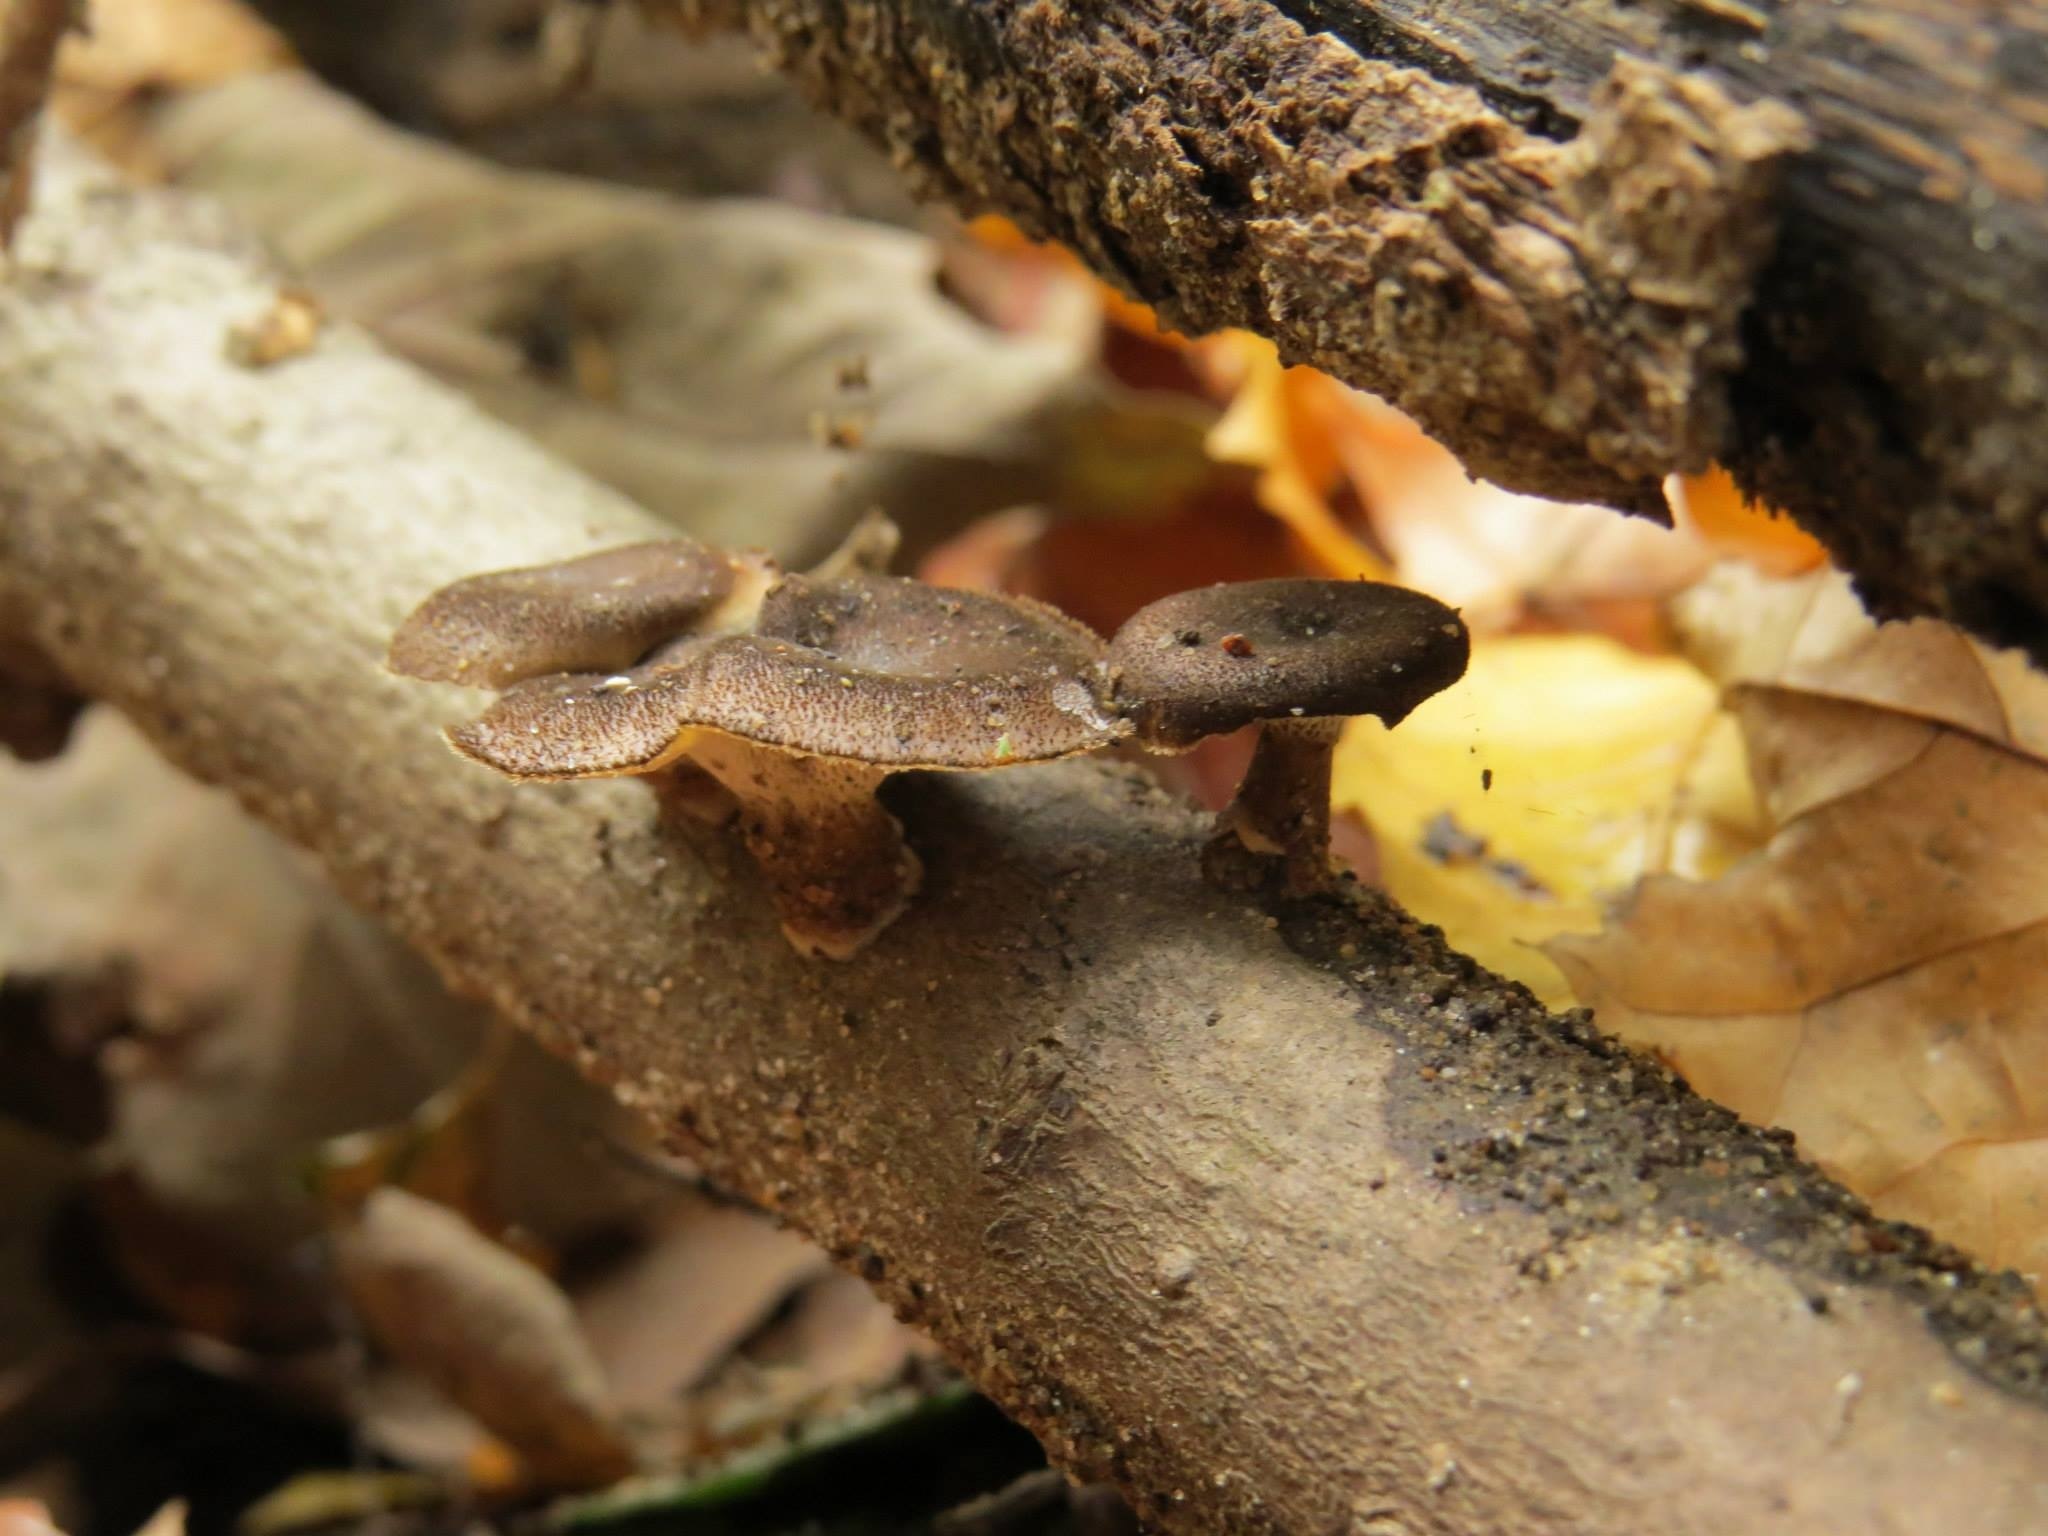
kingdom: Fungi
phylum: Basidiomycota
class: Agaricomycetes
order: Polyporales
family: Polyporaceae
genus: Lentinus
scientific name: Lentinus brumalis
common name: Winter polypore
